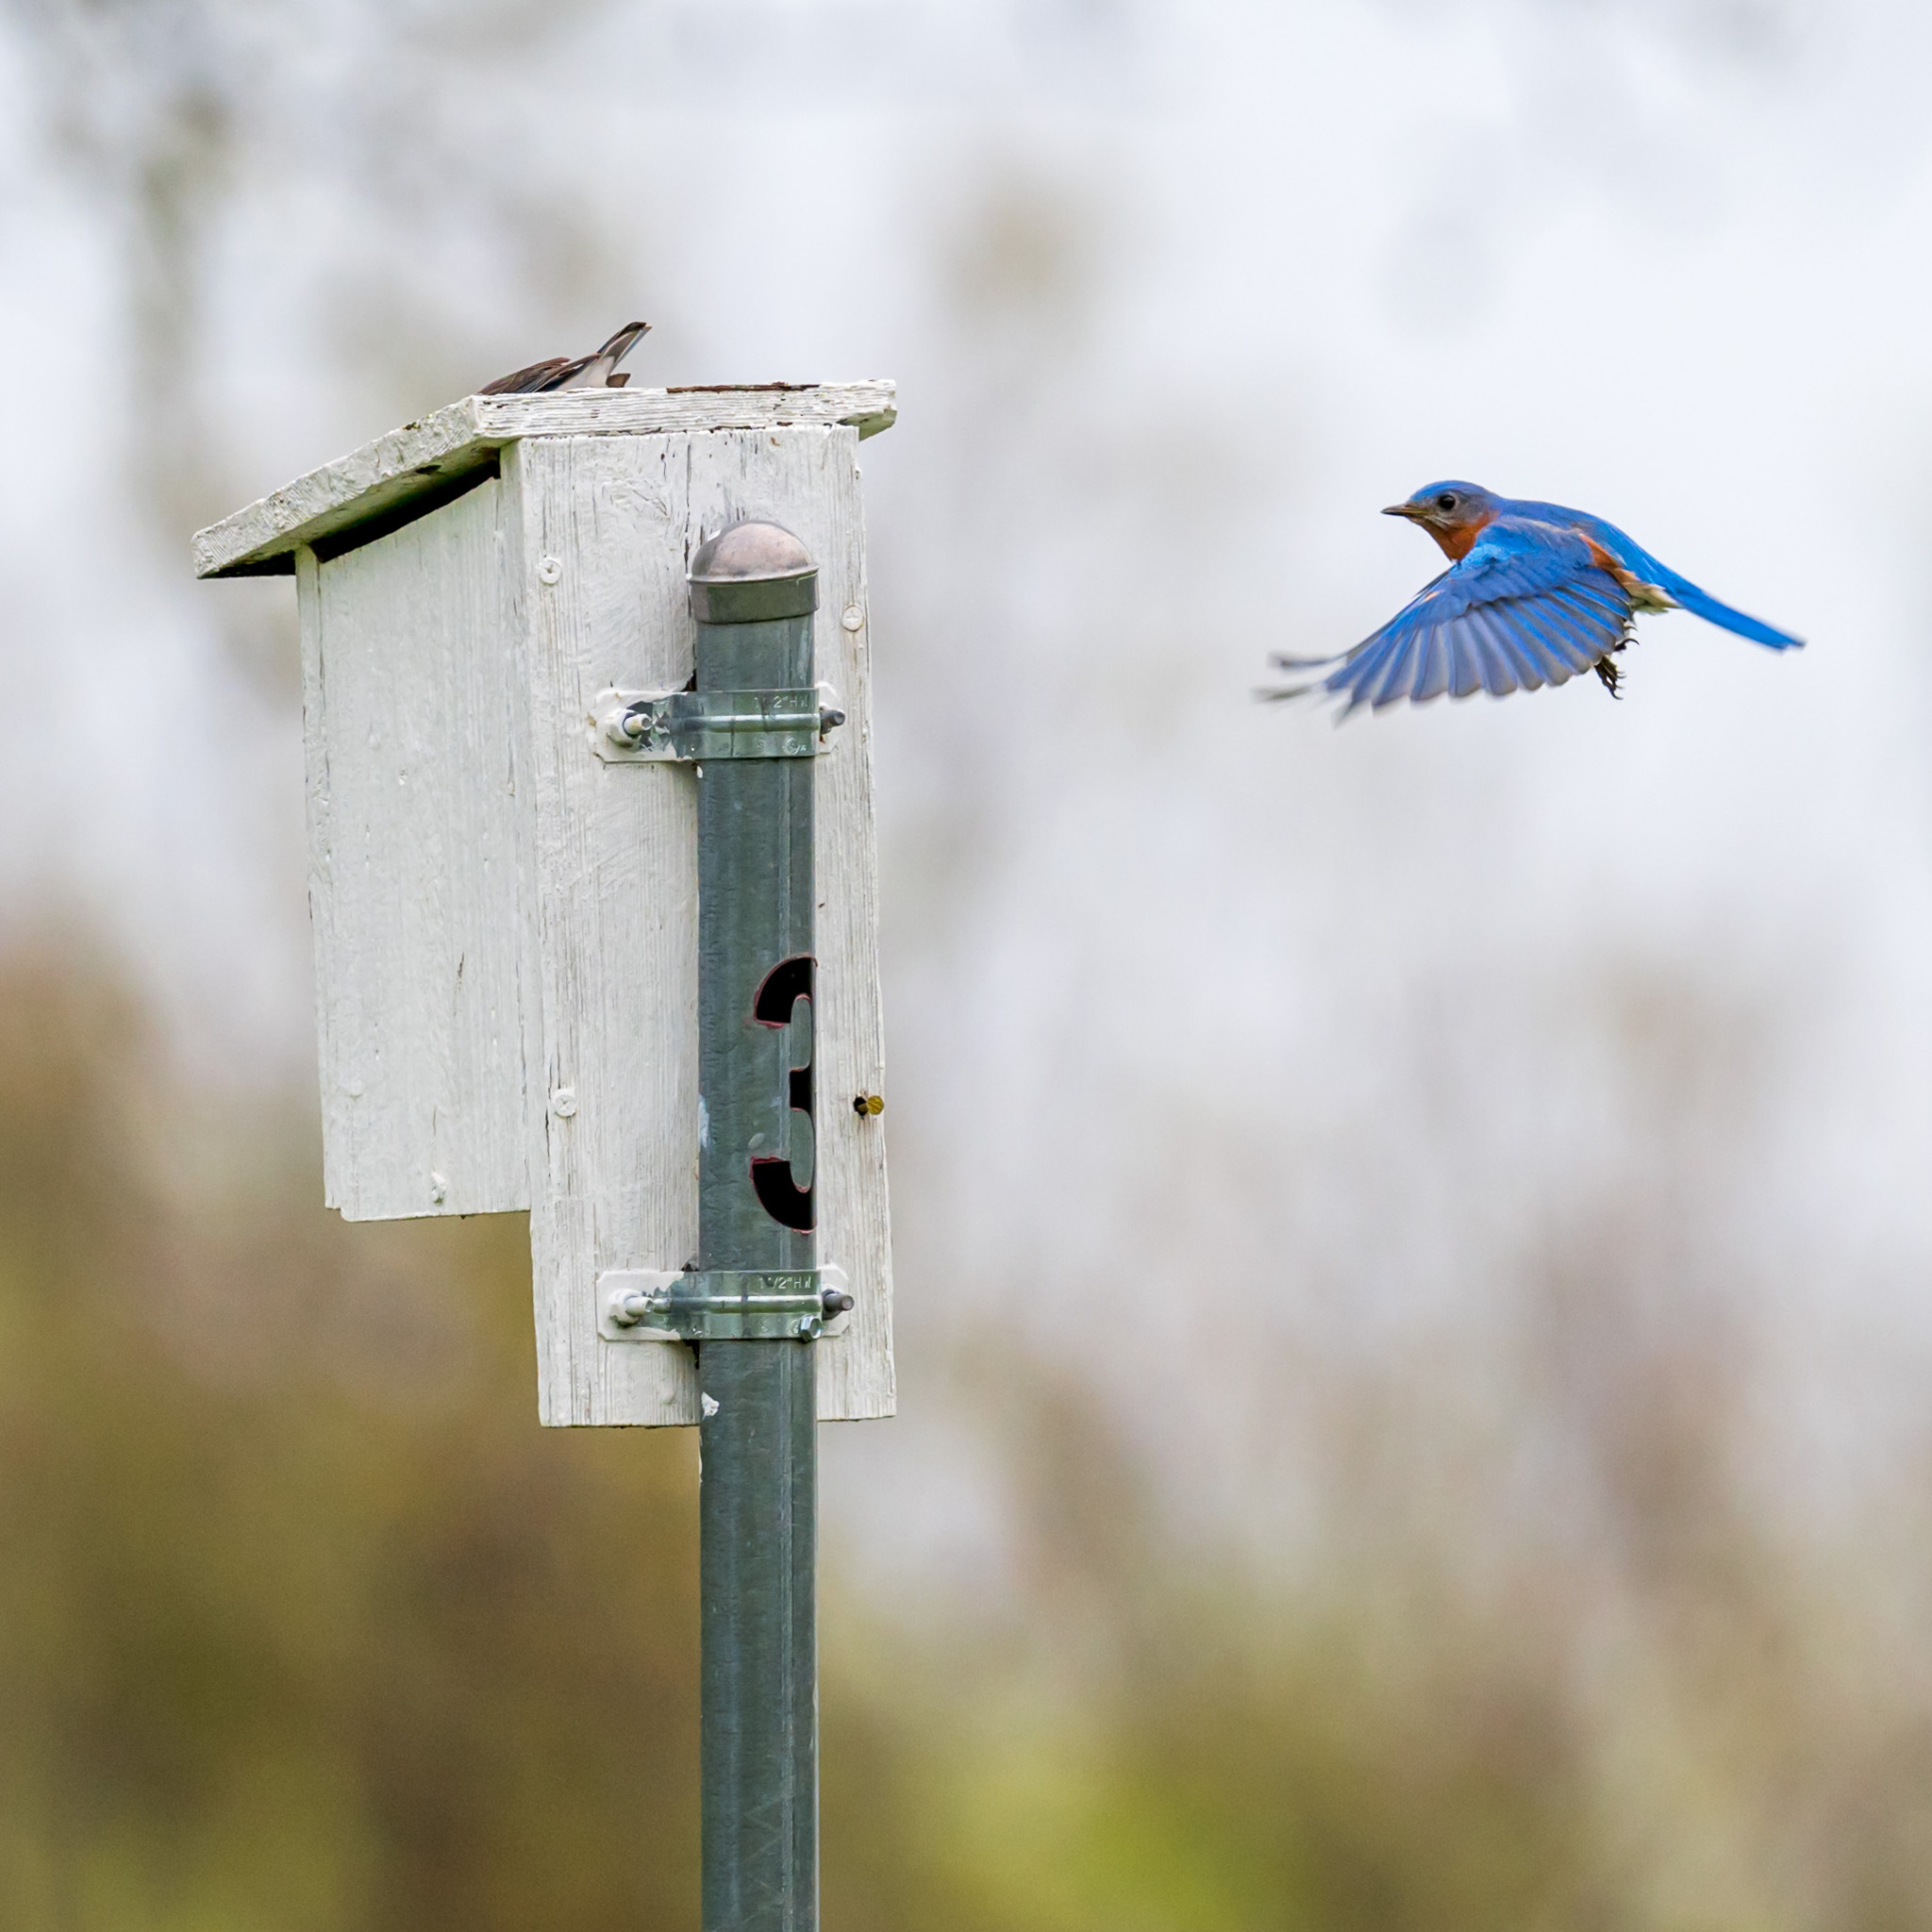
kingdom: Animalia
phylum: Chordata
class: Aves
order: Passeriformes
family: Turdidae
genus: Sialia
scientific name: Sialia sialis
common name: Eastern bluebird
